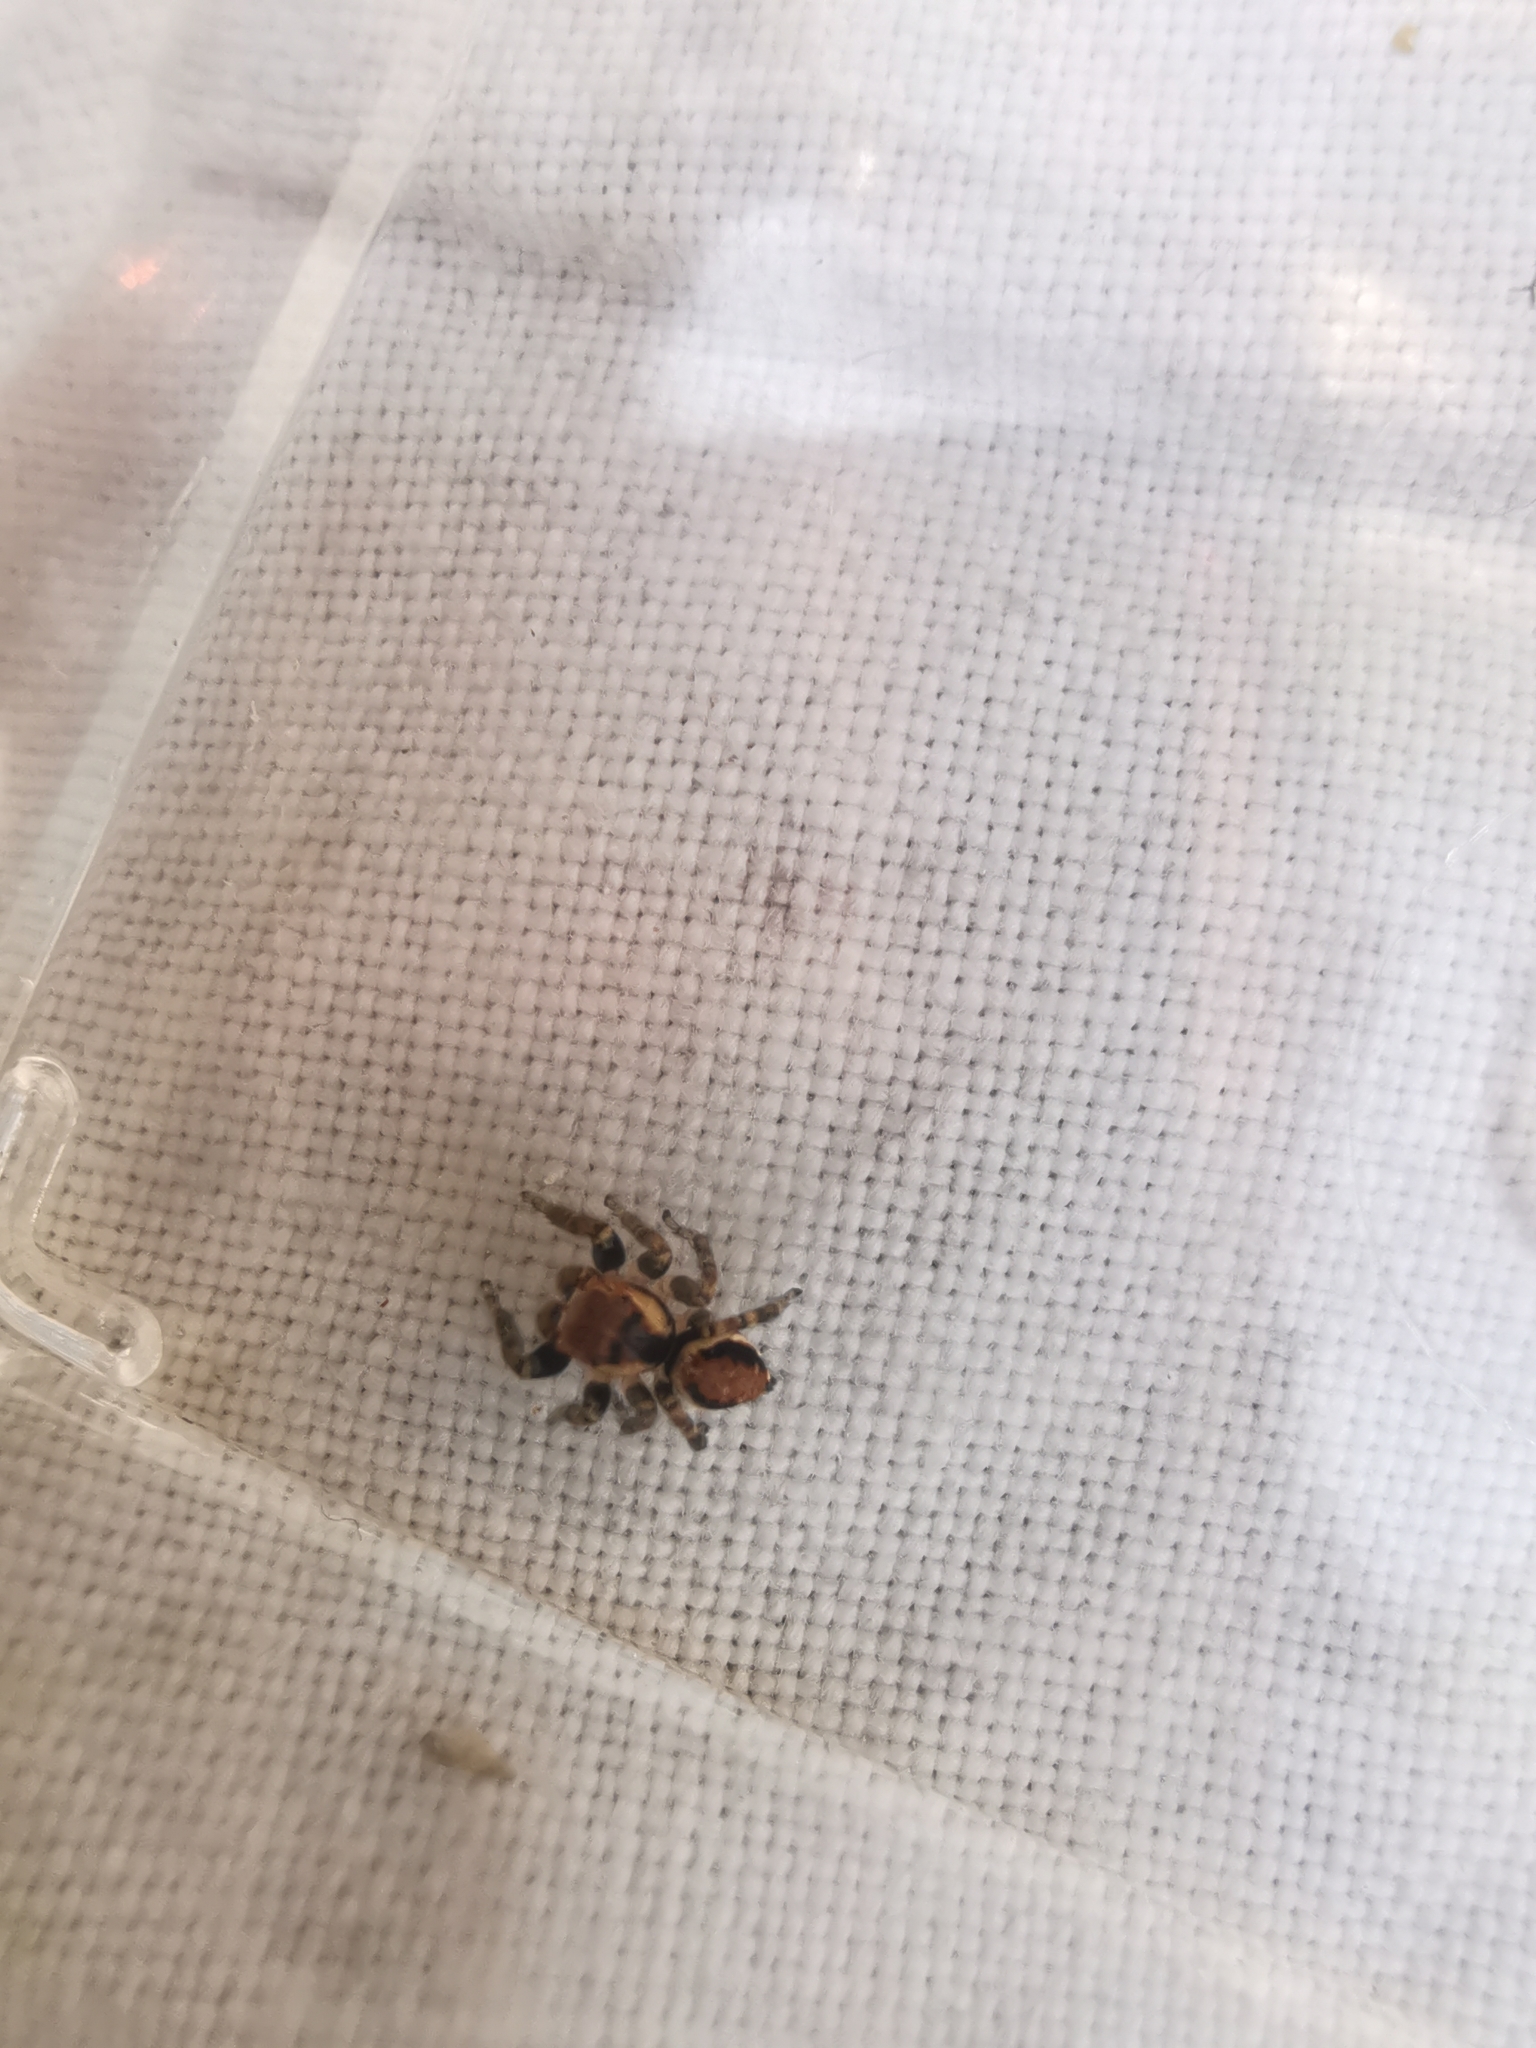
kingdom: Animalia
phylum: Arthropoda
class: Arachnida
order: Araneae
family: Salticidae
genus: Evarcha
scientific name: Evarcha falcata
